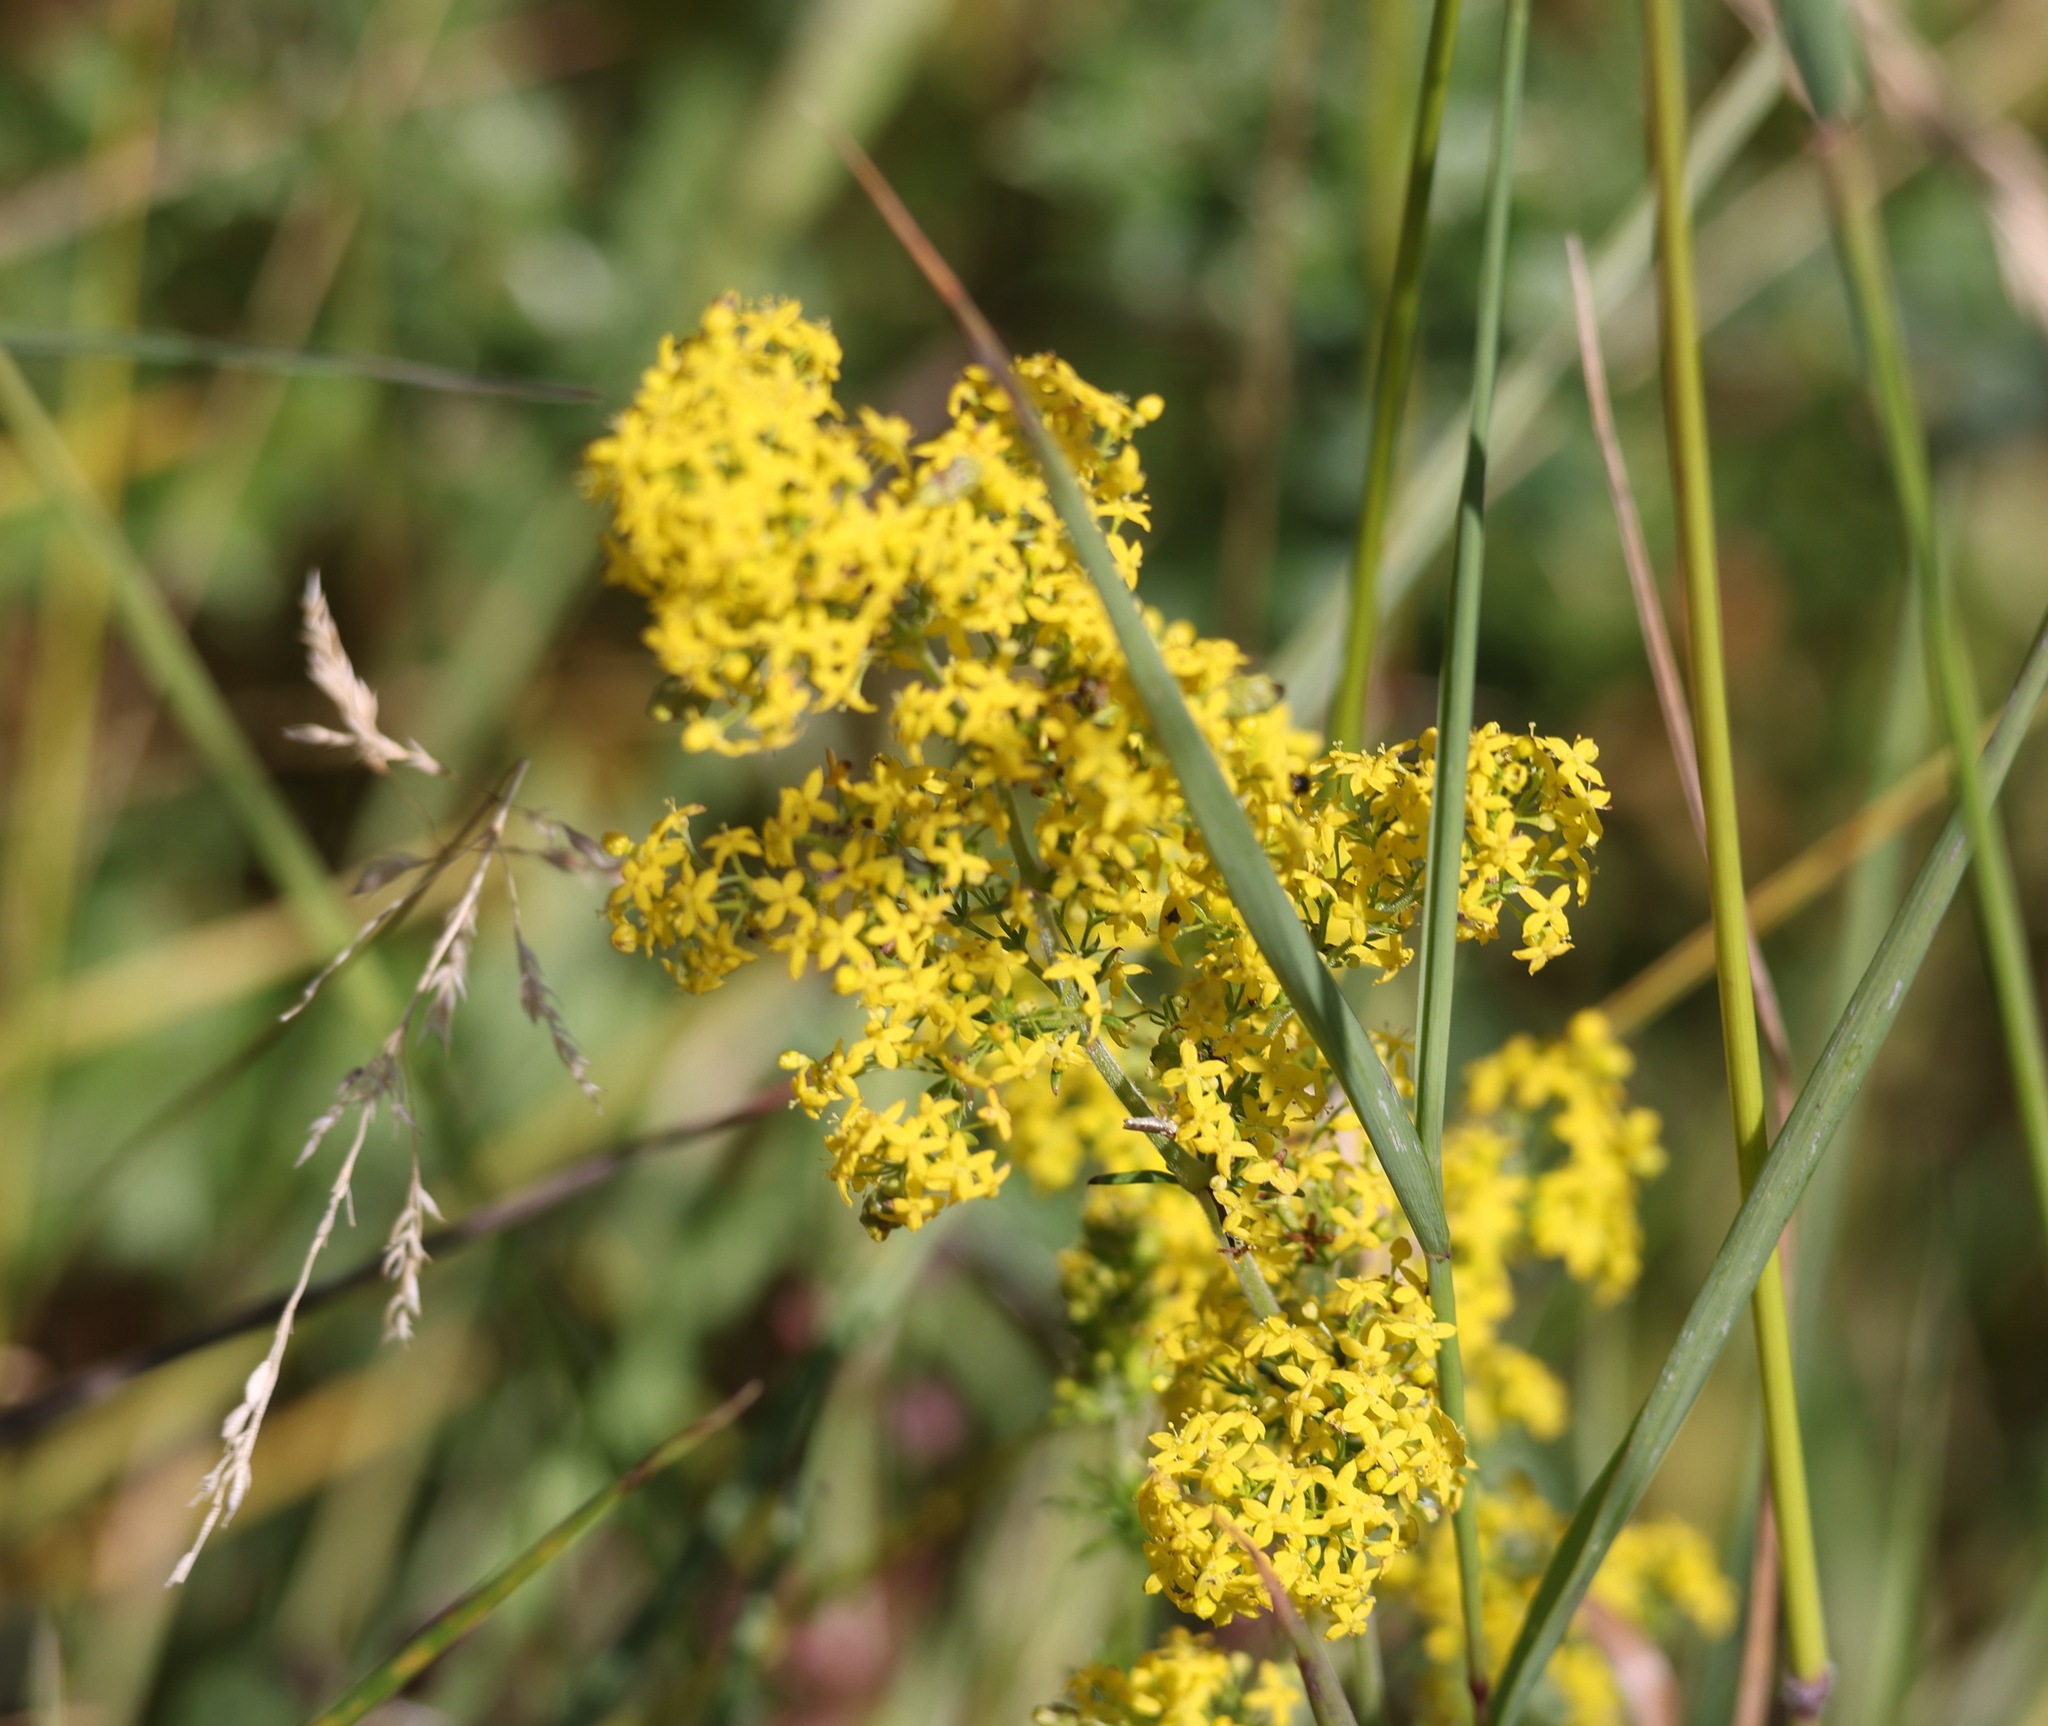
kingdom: Plantae
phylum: Tracheophyta
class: Magnoliopsida
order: Gentianales
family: Rubiaceae
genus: Galium
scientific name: Galium verum
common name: Lady's bedstraw
